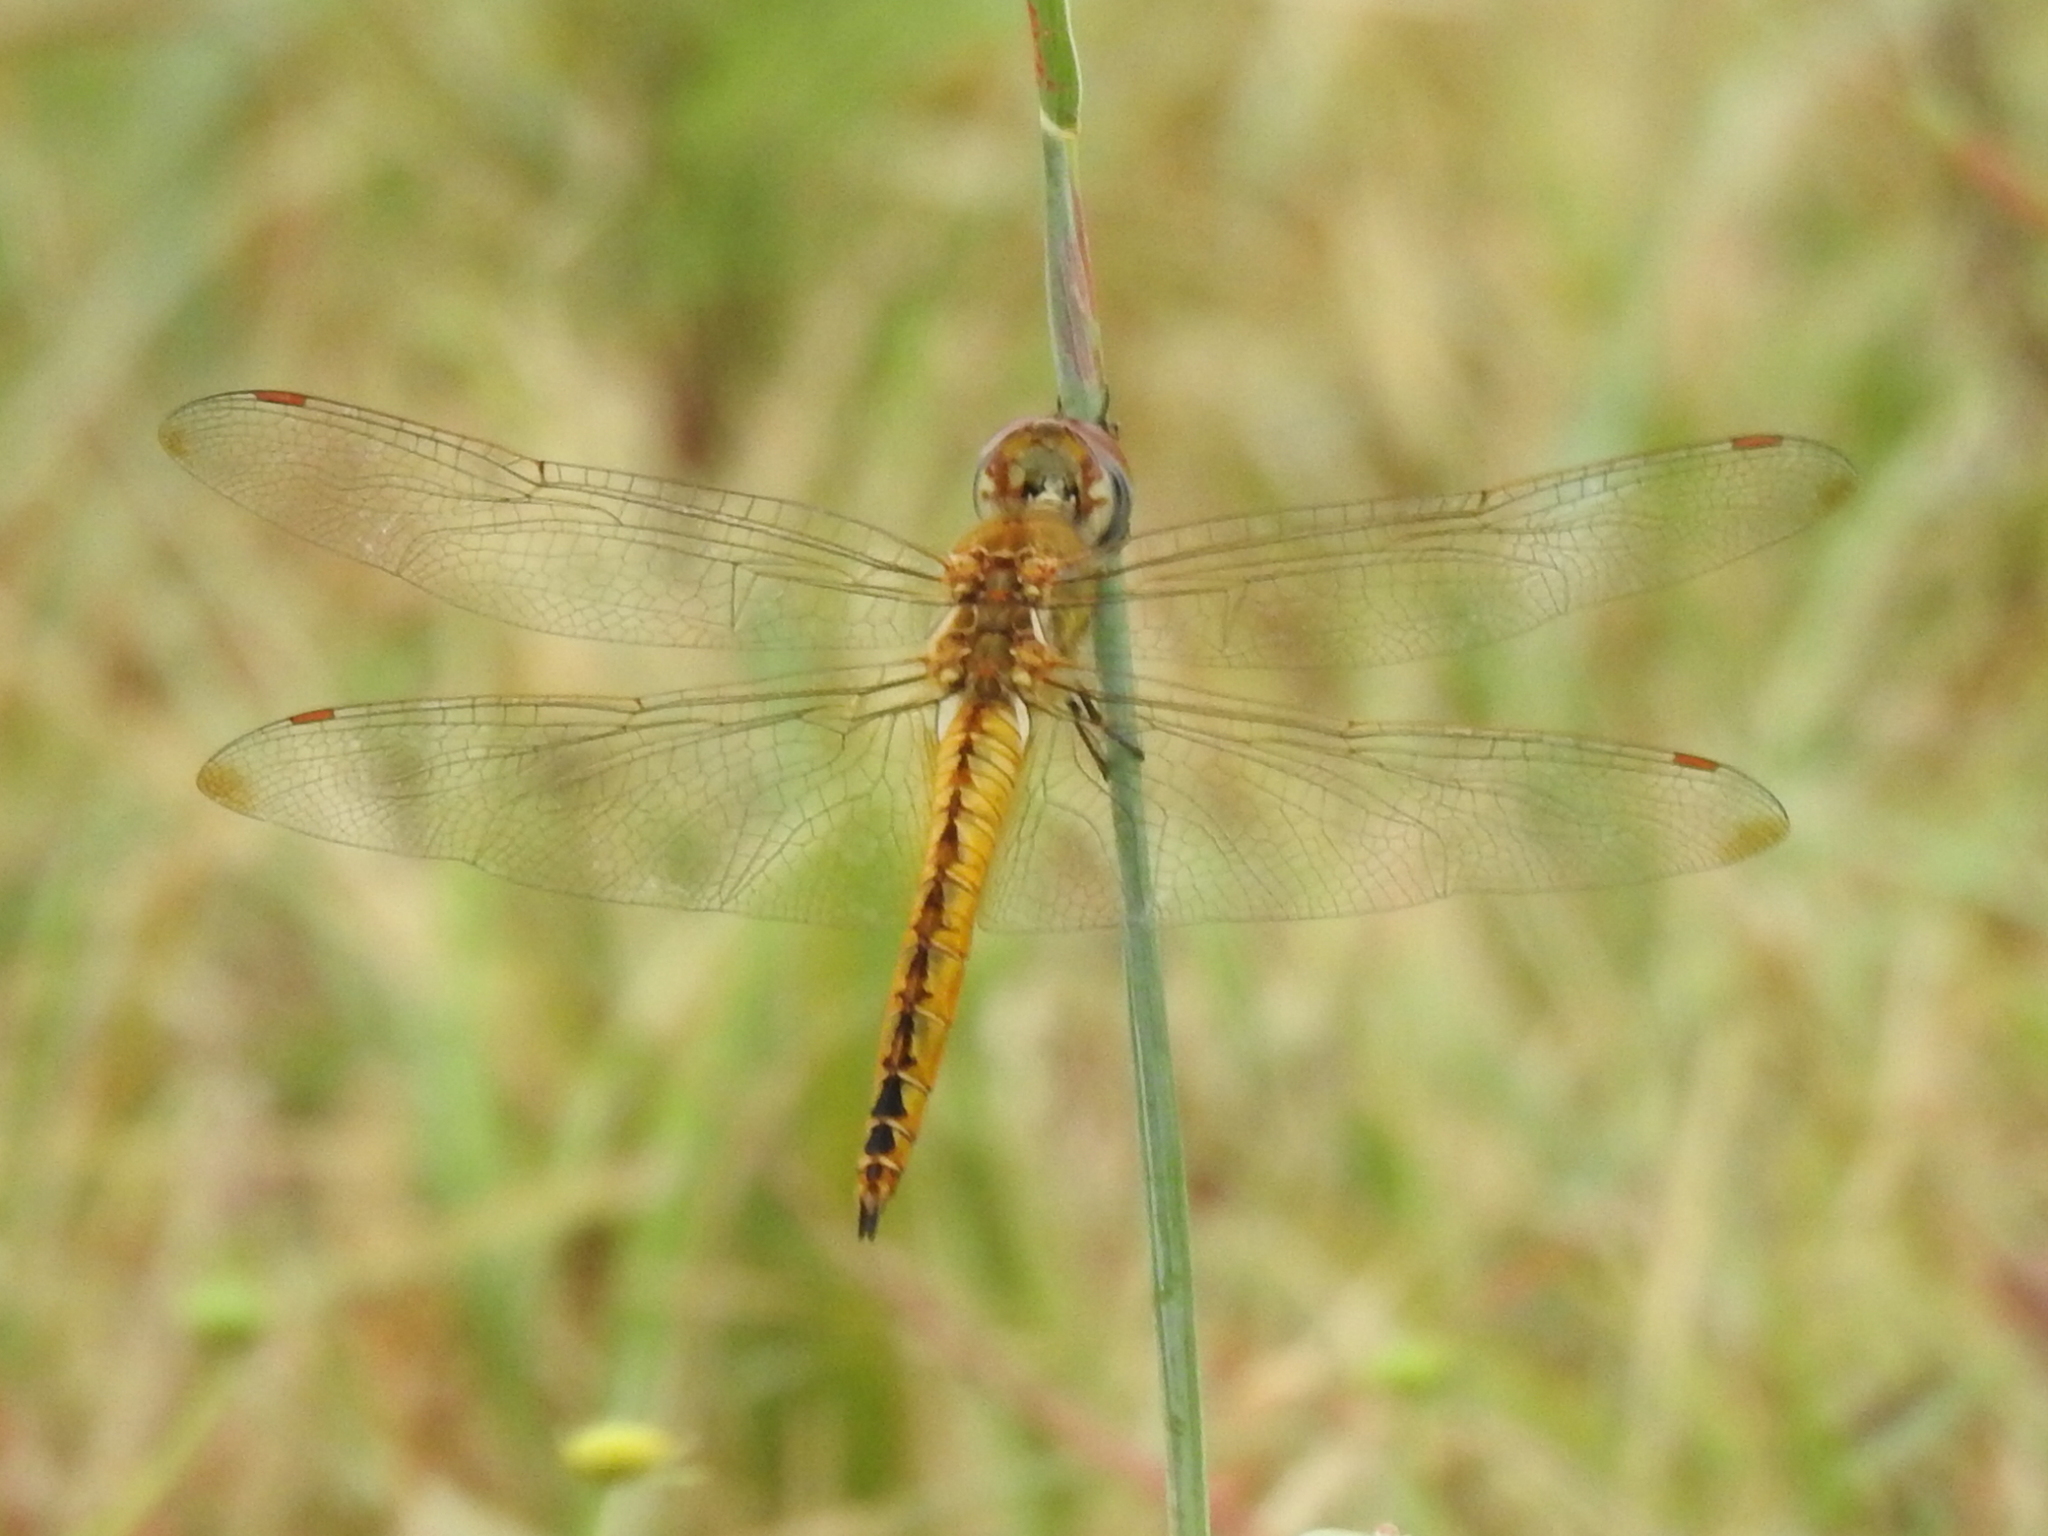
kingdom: Animalia
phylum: Arthropoda
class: Insecta
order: Odonata
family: Libellulidae
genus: Pantala
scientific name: Pantala flavescens
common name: Wandering glider
